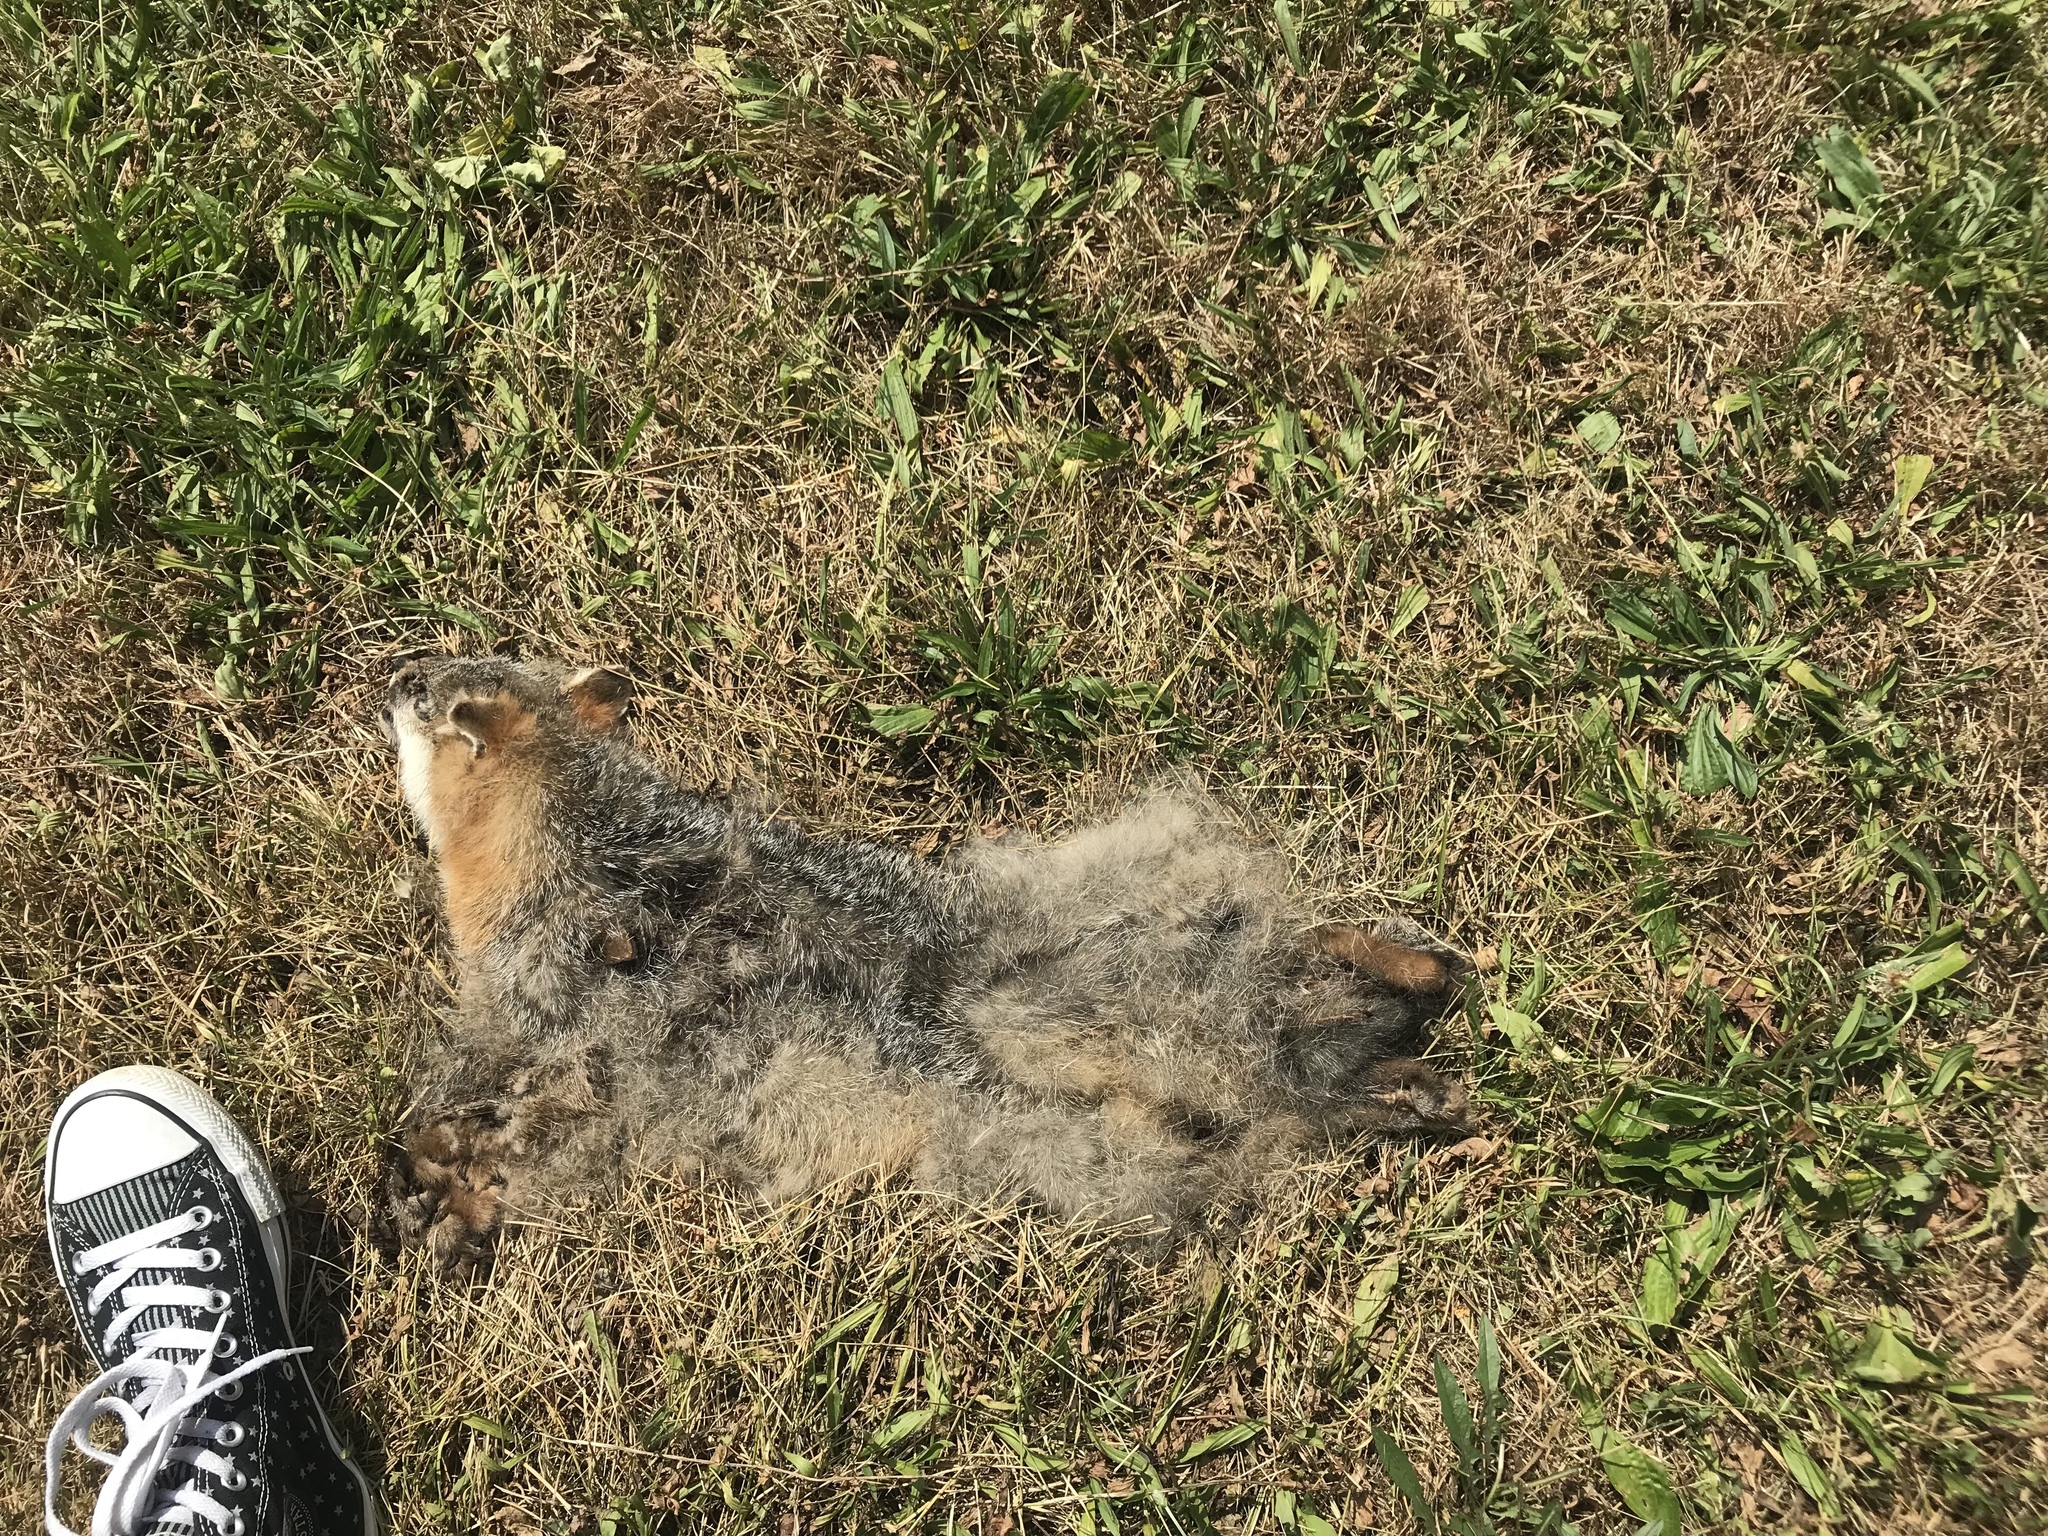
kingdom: Animalia
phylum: Chordata
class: Mammalia
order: Carnivora
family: Canidae
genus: Urocyon
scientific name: Urocyon cinereoargenteus
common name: Gray fox
